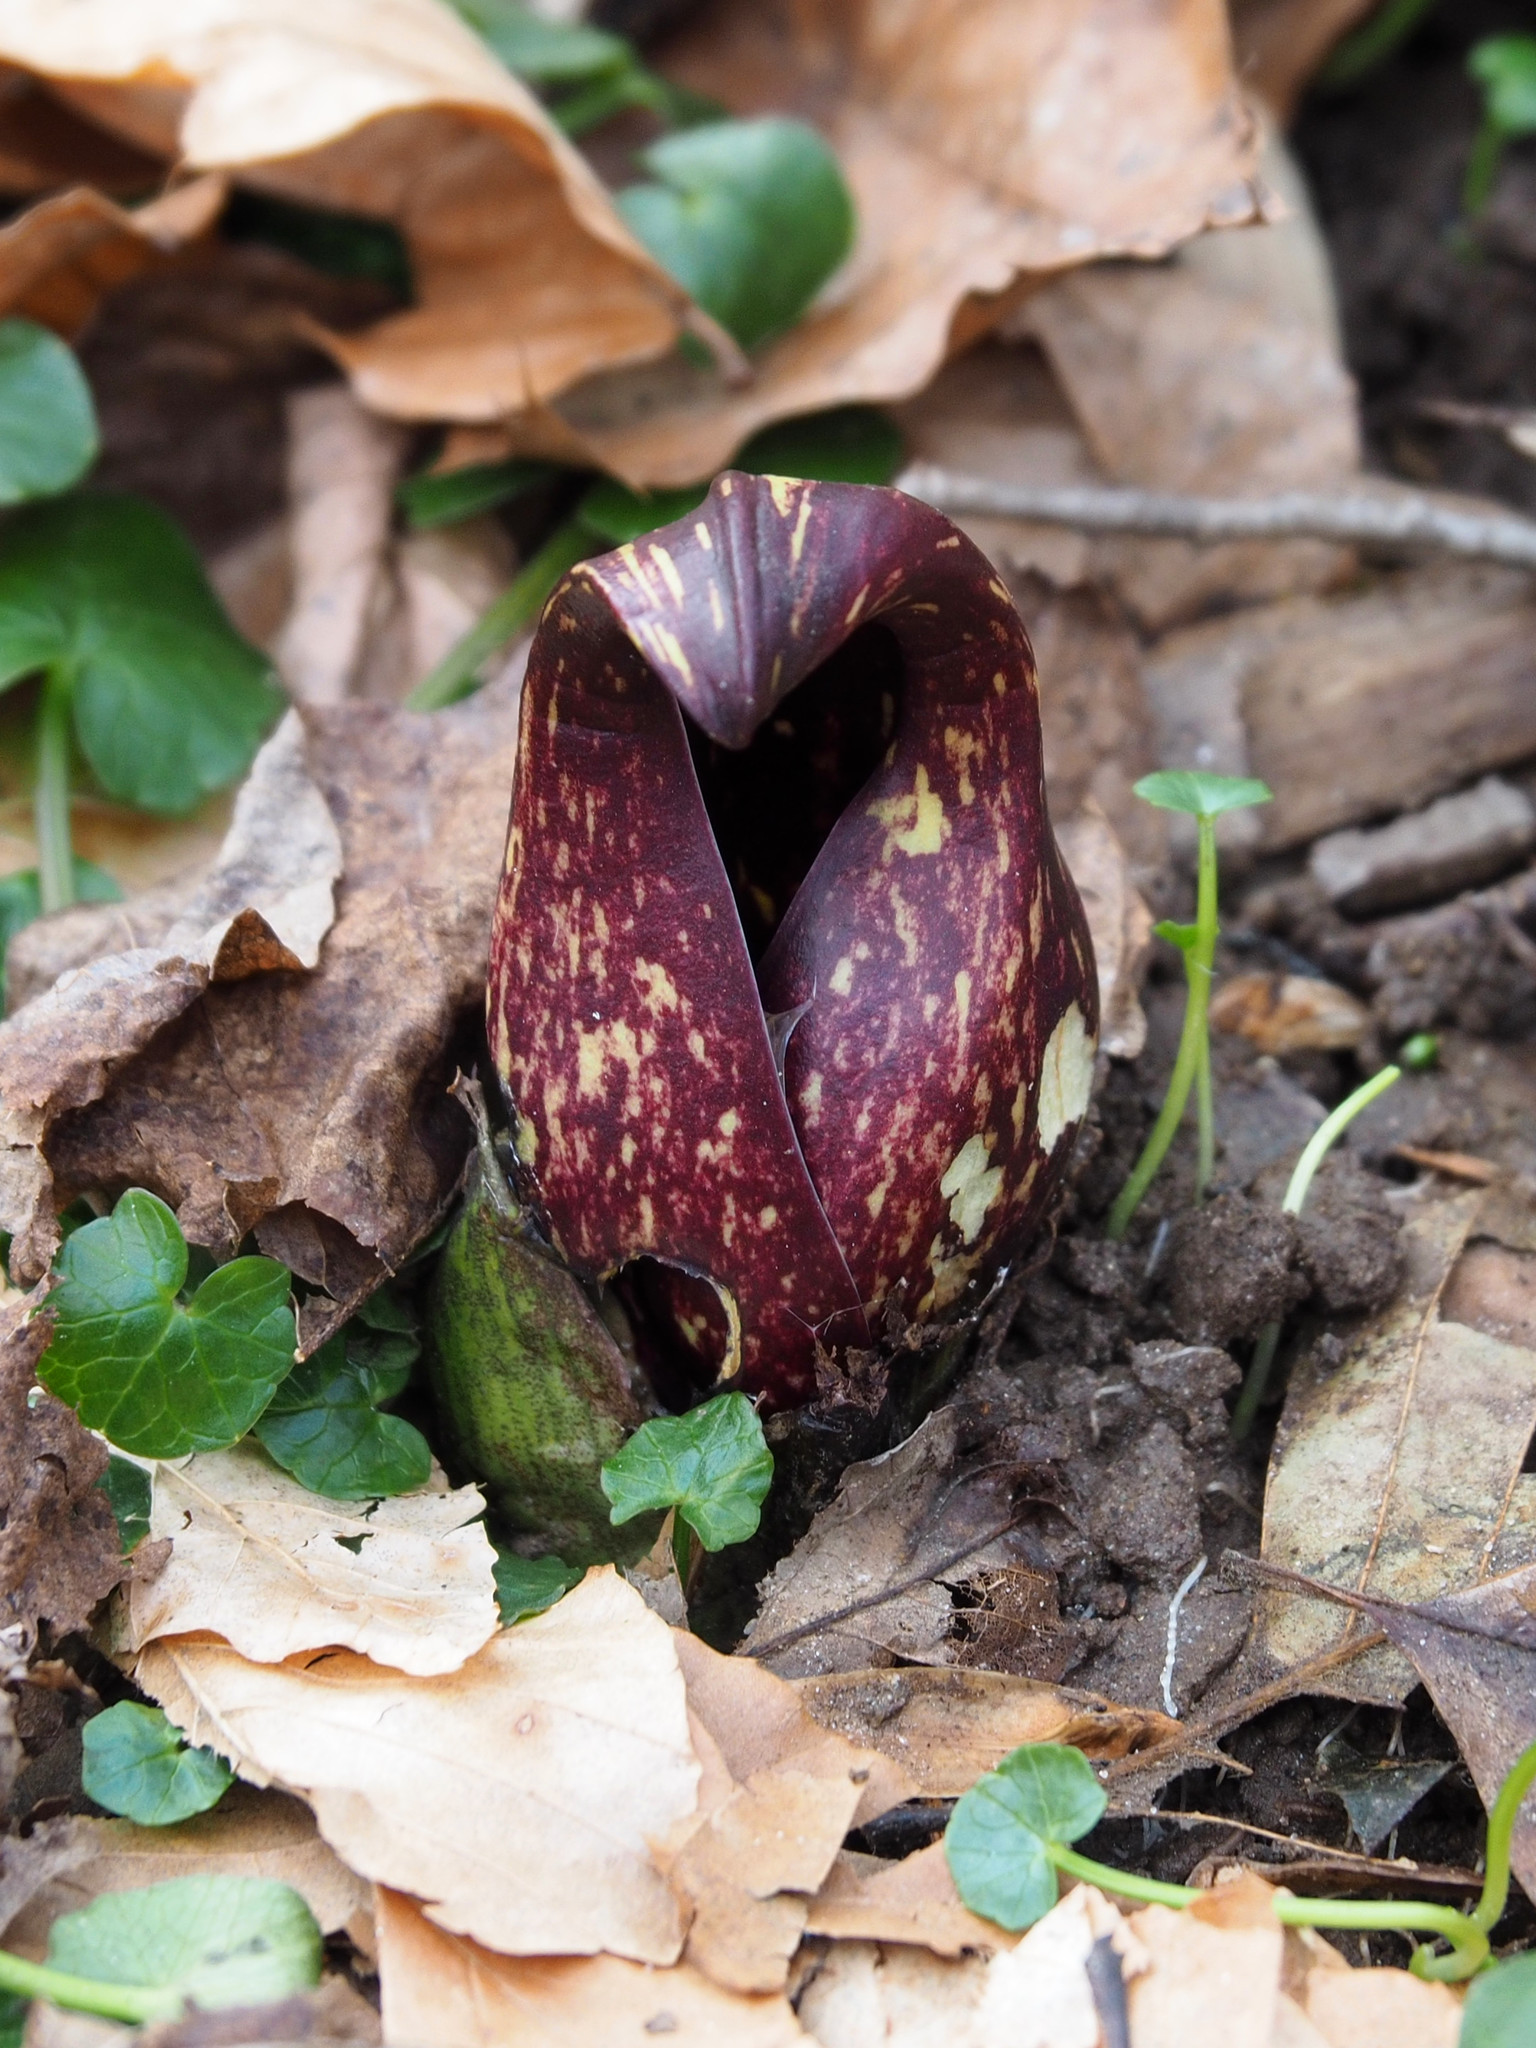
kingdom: Plantae
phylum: Tracheophyta
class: Liliopsida
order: Alismatales
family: Araceae
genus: Symplocarpus
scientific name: Symplocarpus foetidus
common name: Eastern skunk cabbage
